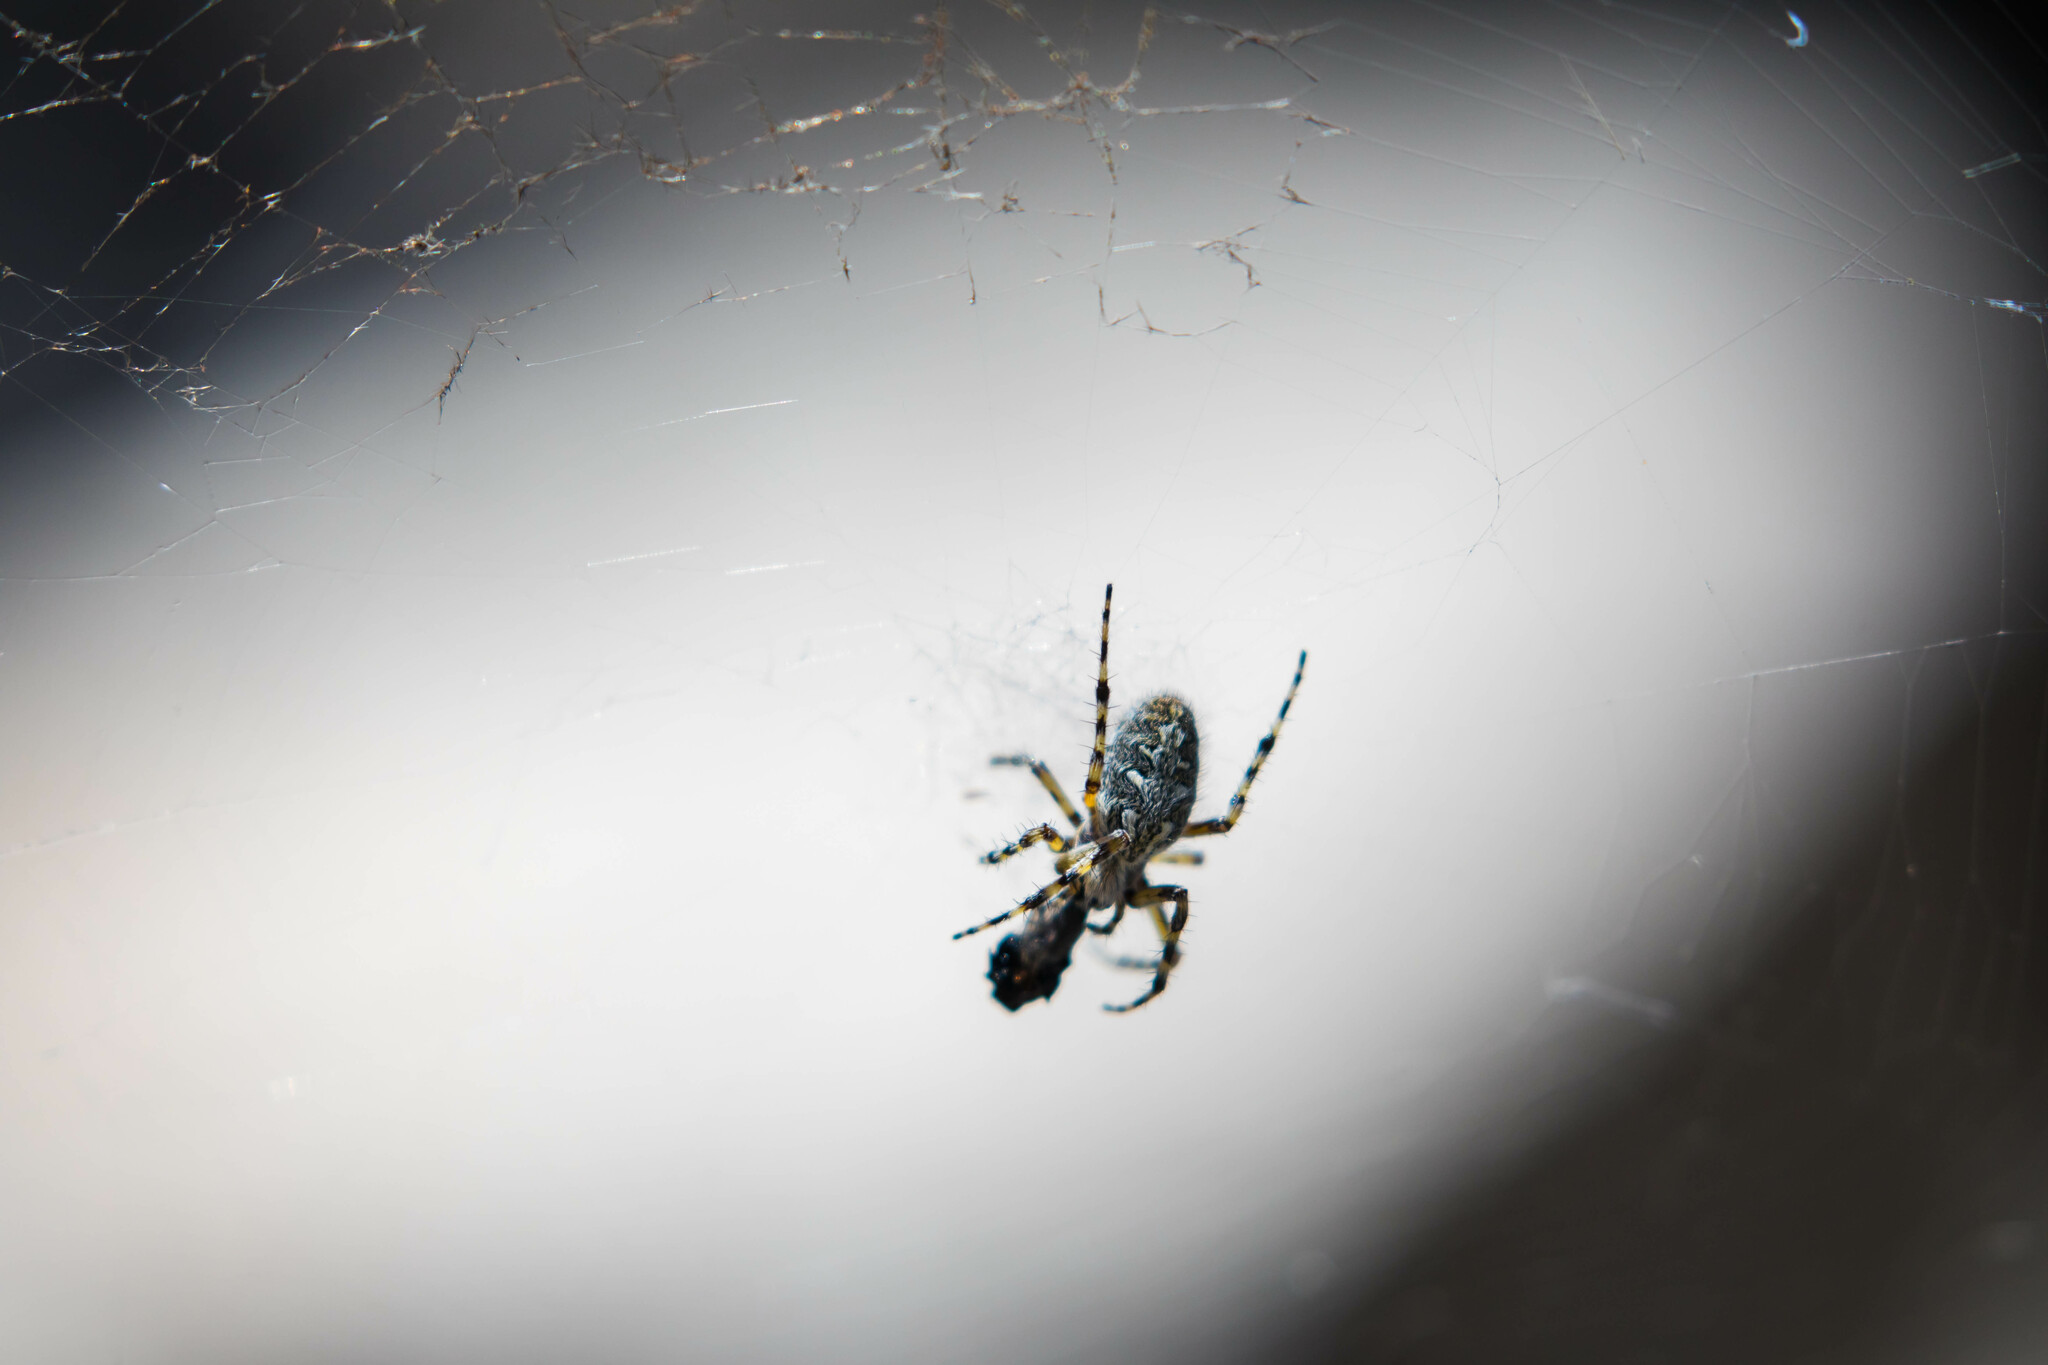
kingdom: Animalia
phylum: Arthropoda
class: Arachnida
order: Araneae
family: Araneidae
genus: Aculepeira
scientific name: Aculepeira ceropegia
